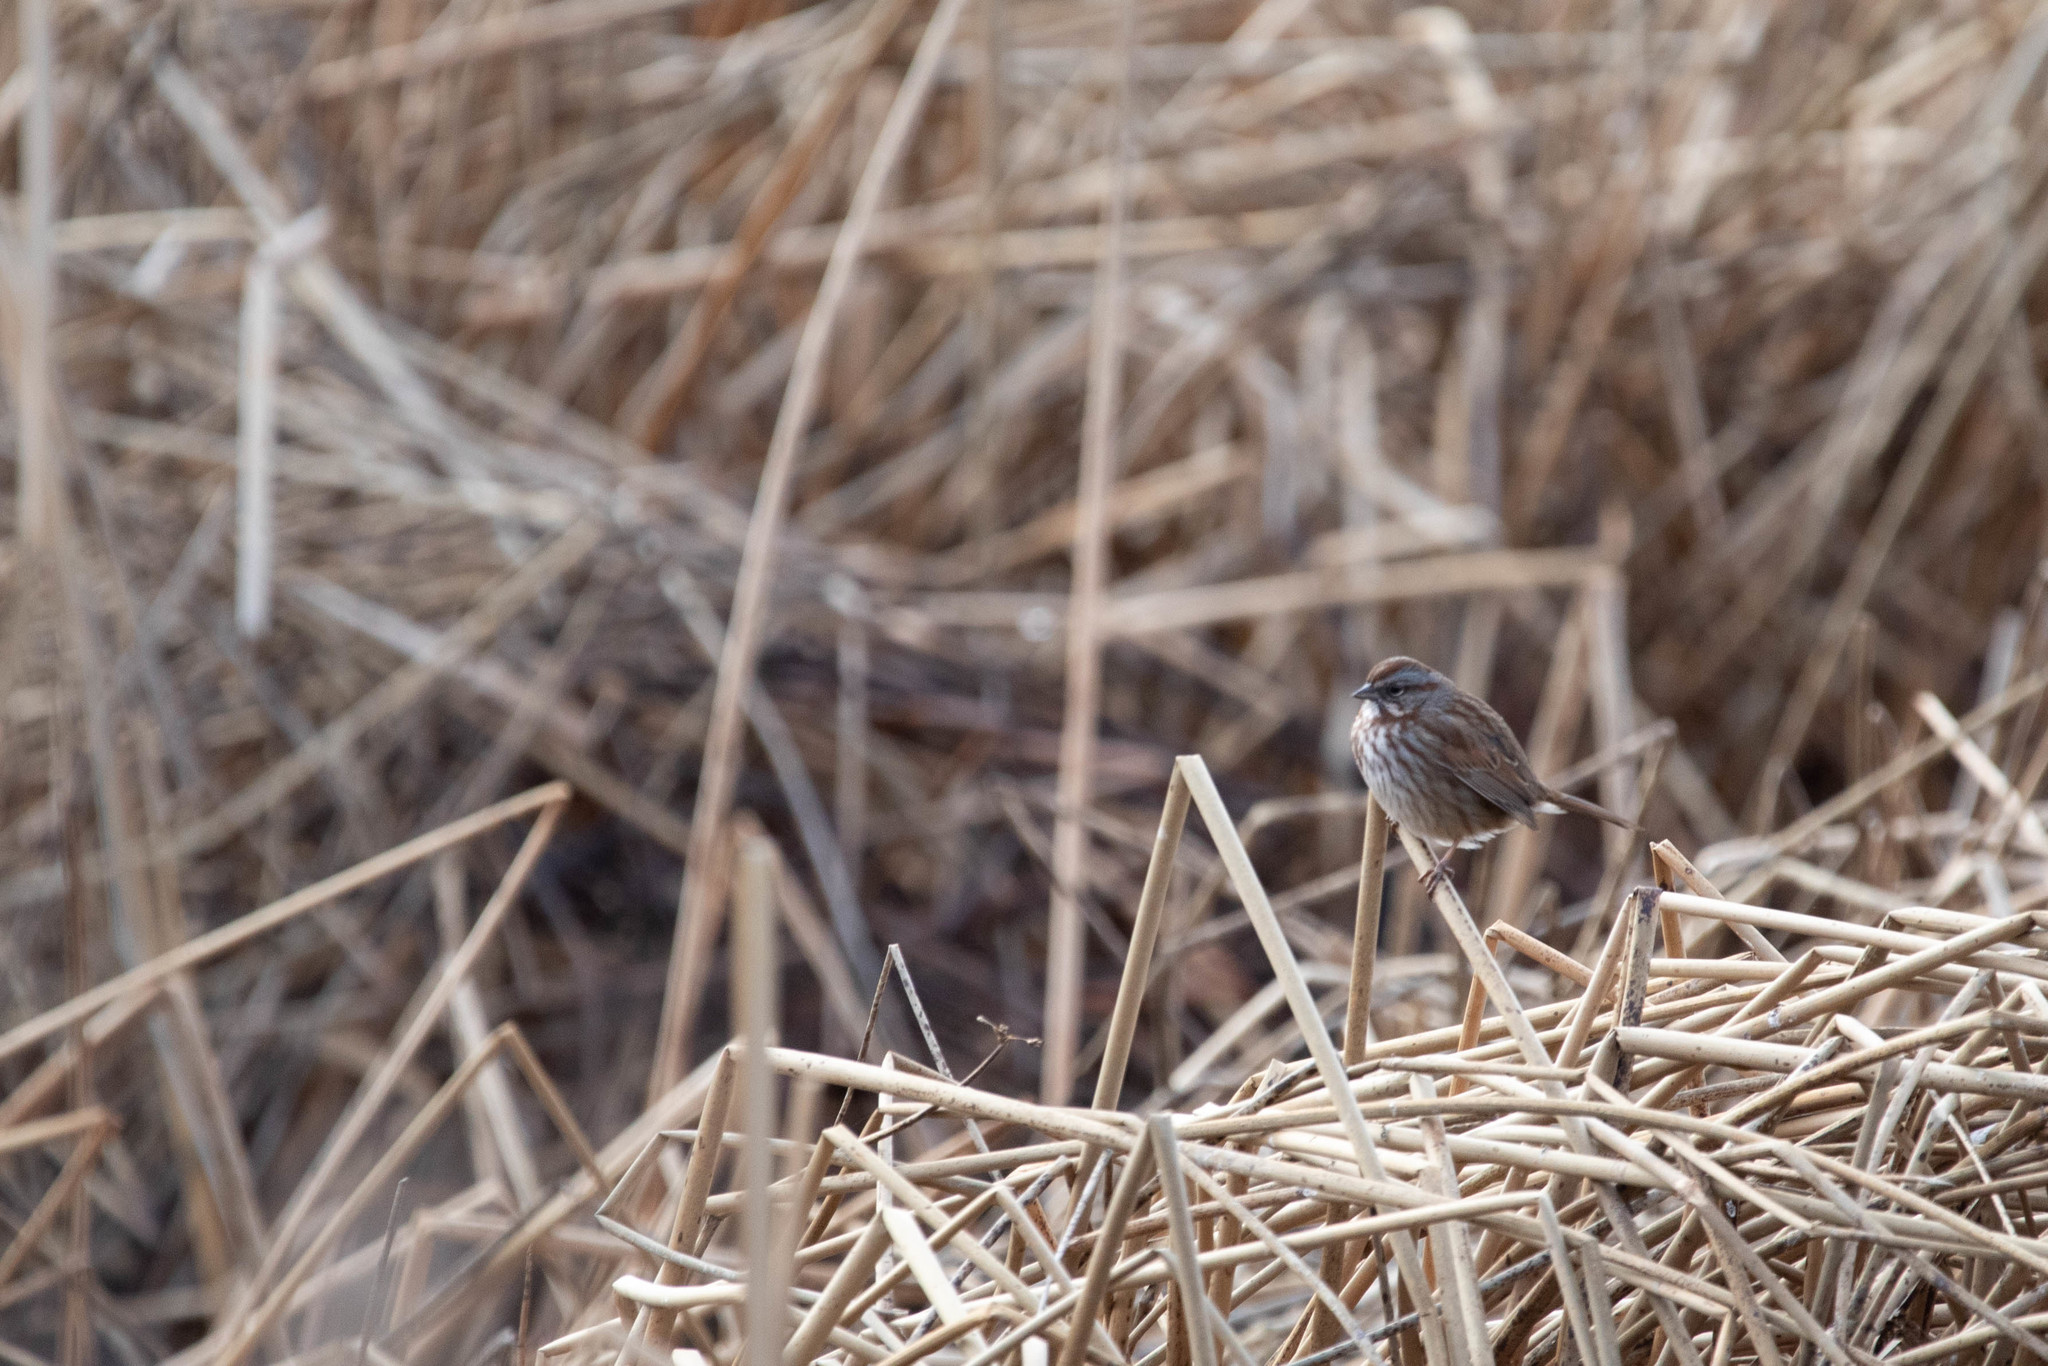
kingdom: Animalia
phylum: Chordata
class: Aves
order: Passeriformes
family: Passerellidae
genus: Melospiza
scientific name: Melospiza melodia
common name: Song sparrow
